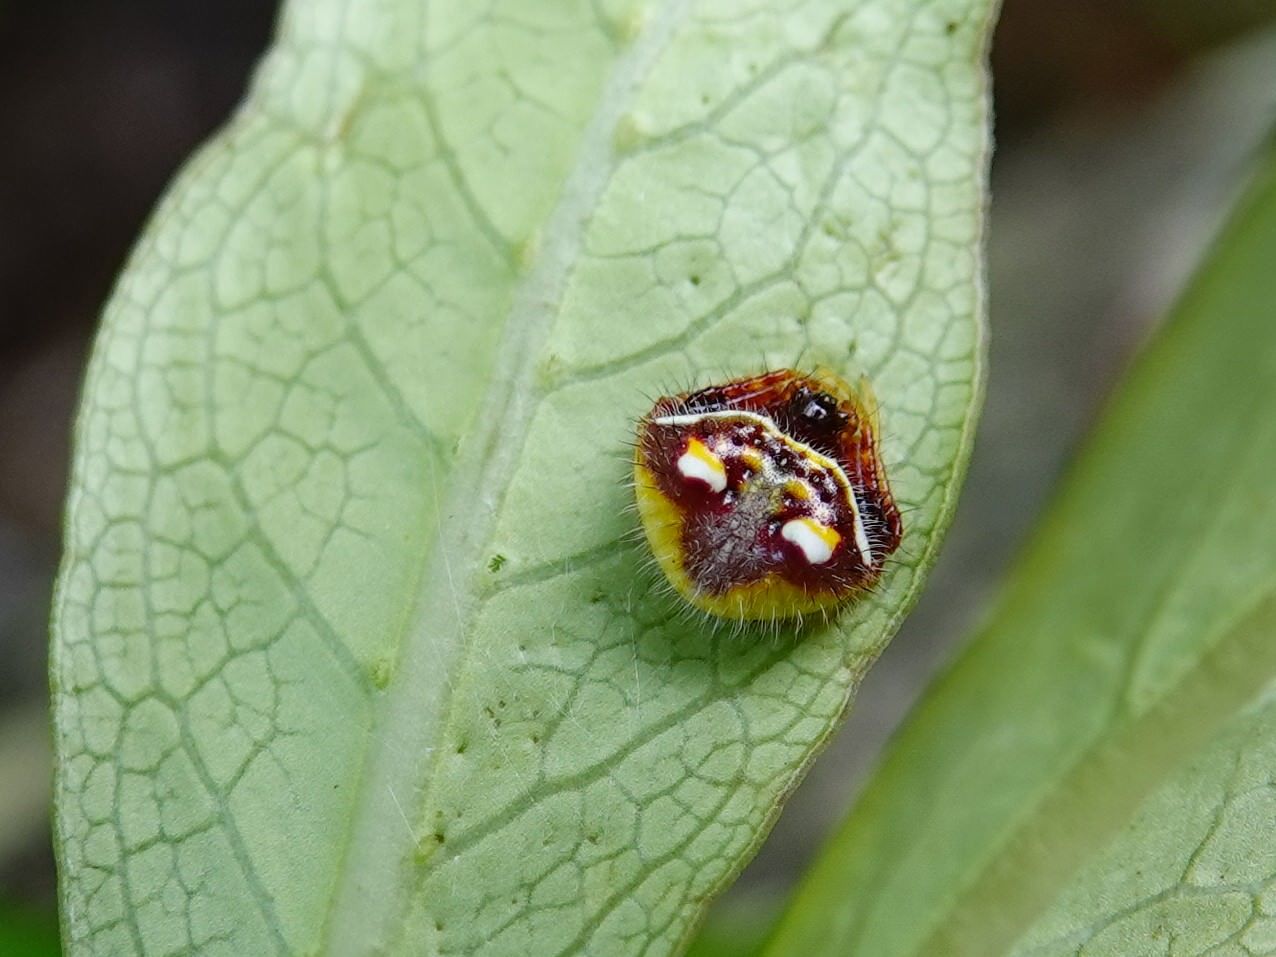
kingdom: Animalia
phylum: Arthropoda
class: Arachnida
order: Araneae
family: Araneidae
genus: Poecilopachys
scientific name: Poecilopachys australasia
